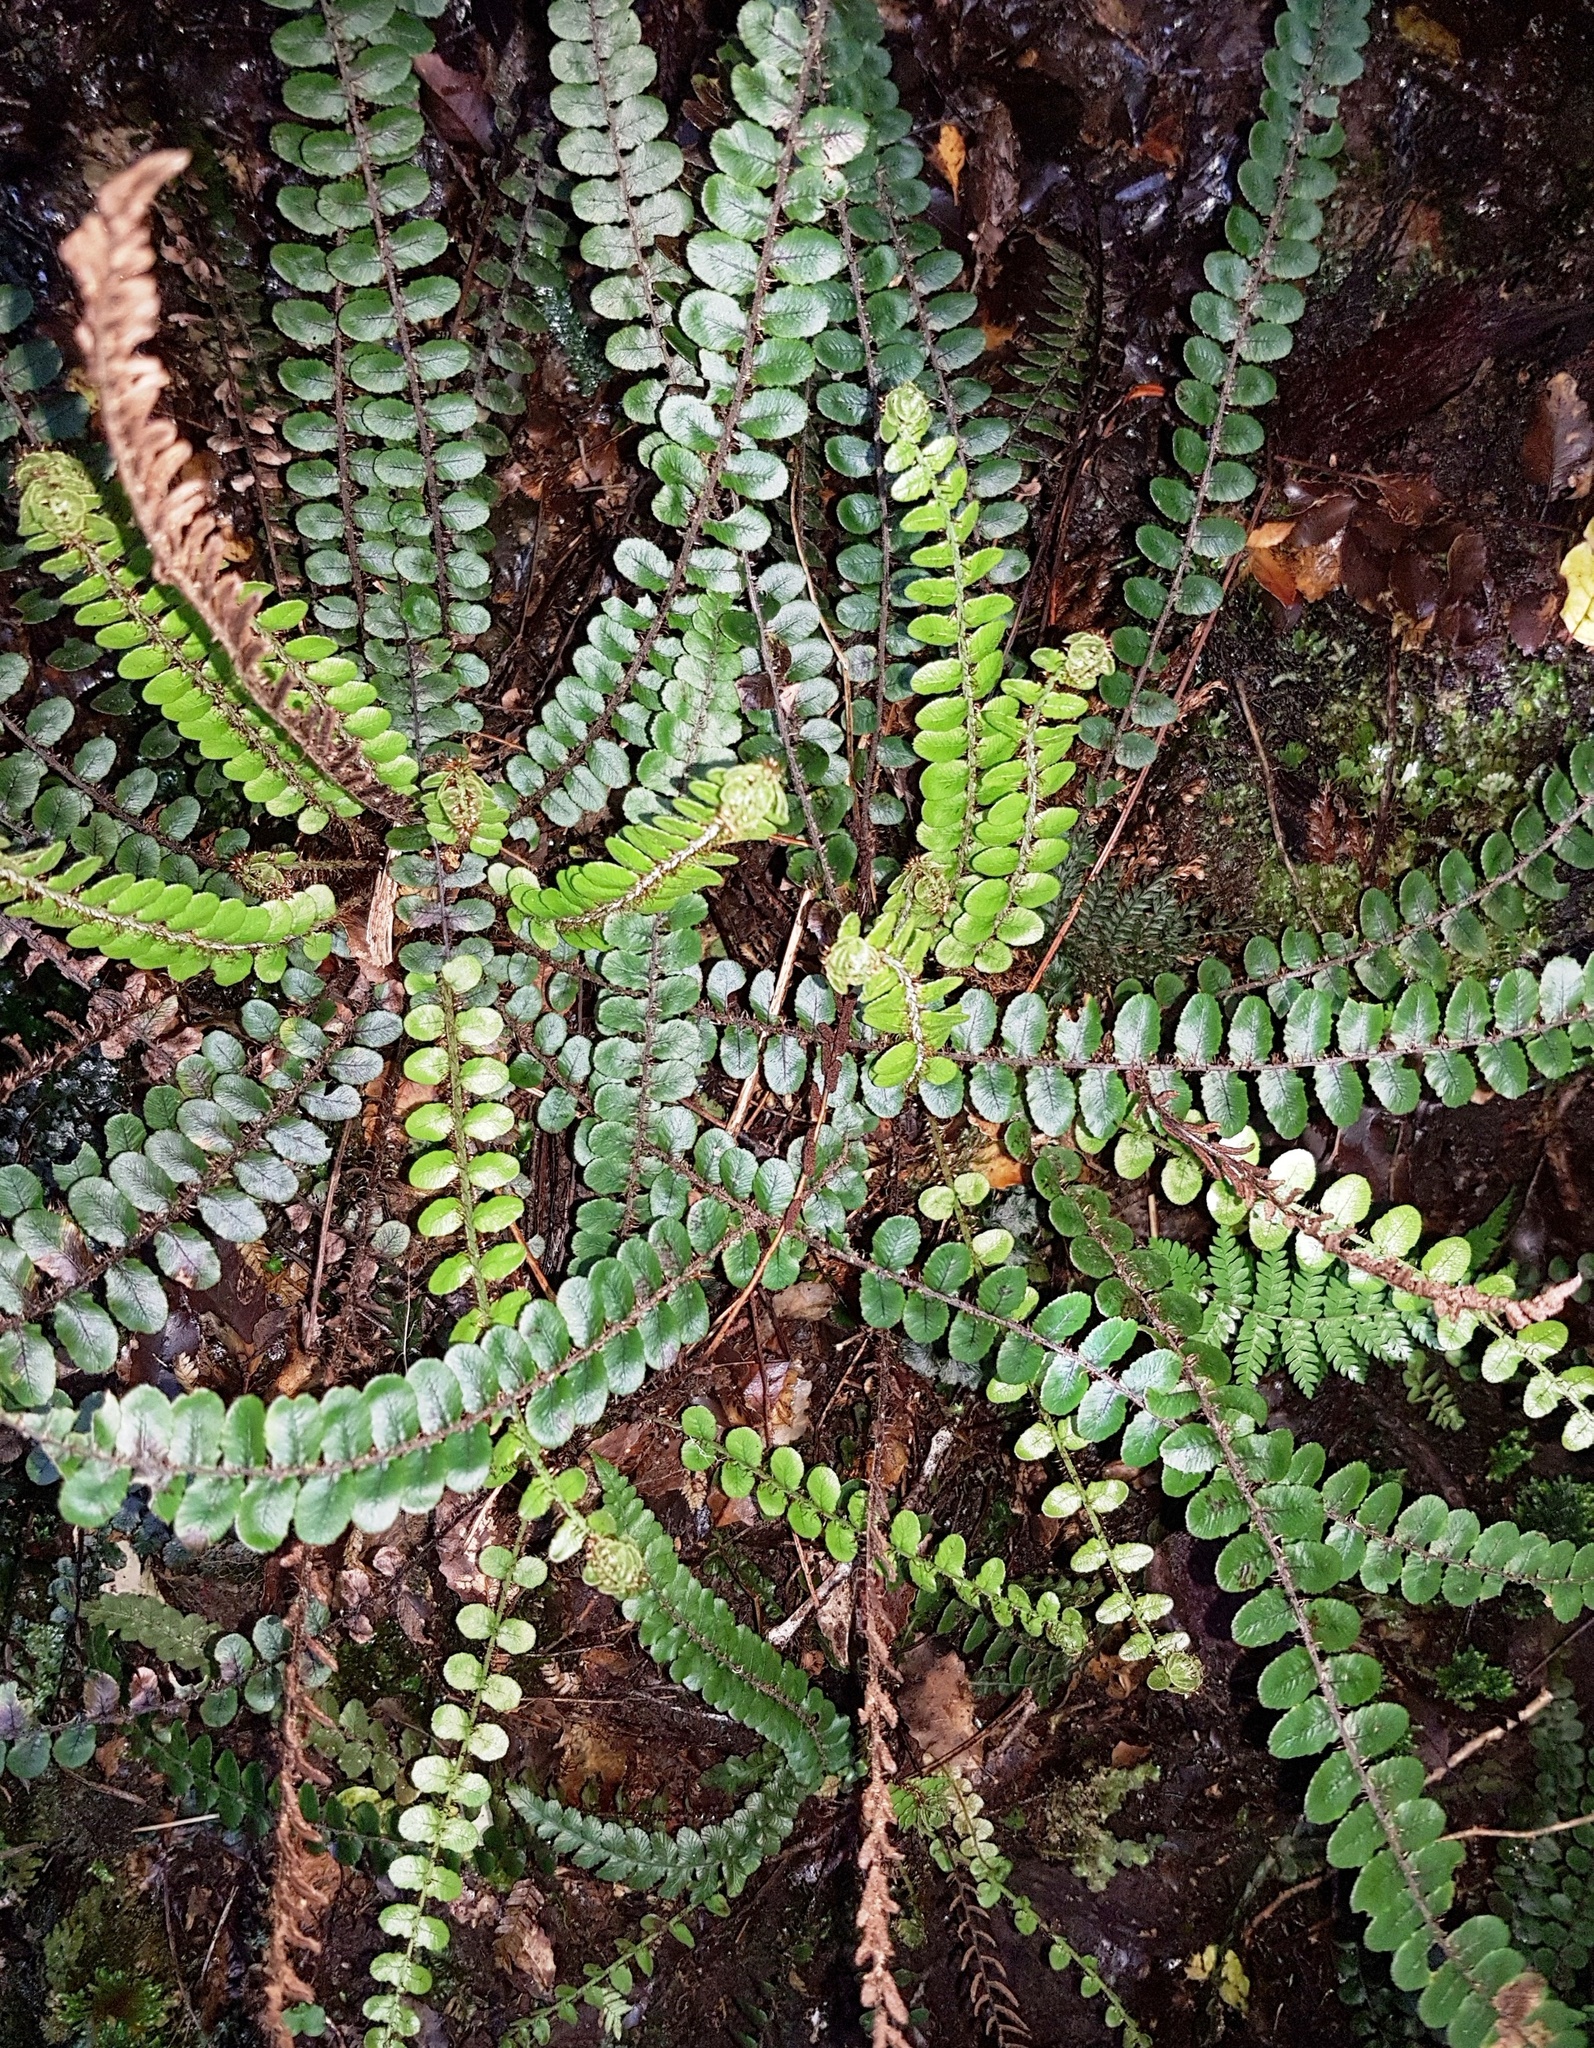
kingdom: Plantae
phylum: Tracheophyta
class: Polypodiopsida
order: Polypodiales
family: Blechnaceae
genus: Cranfillia
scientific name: Cranfillia fluviatilis
